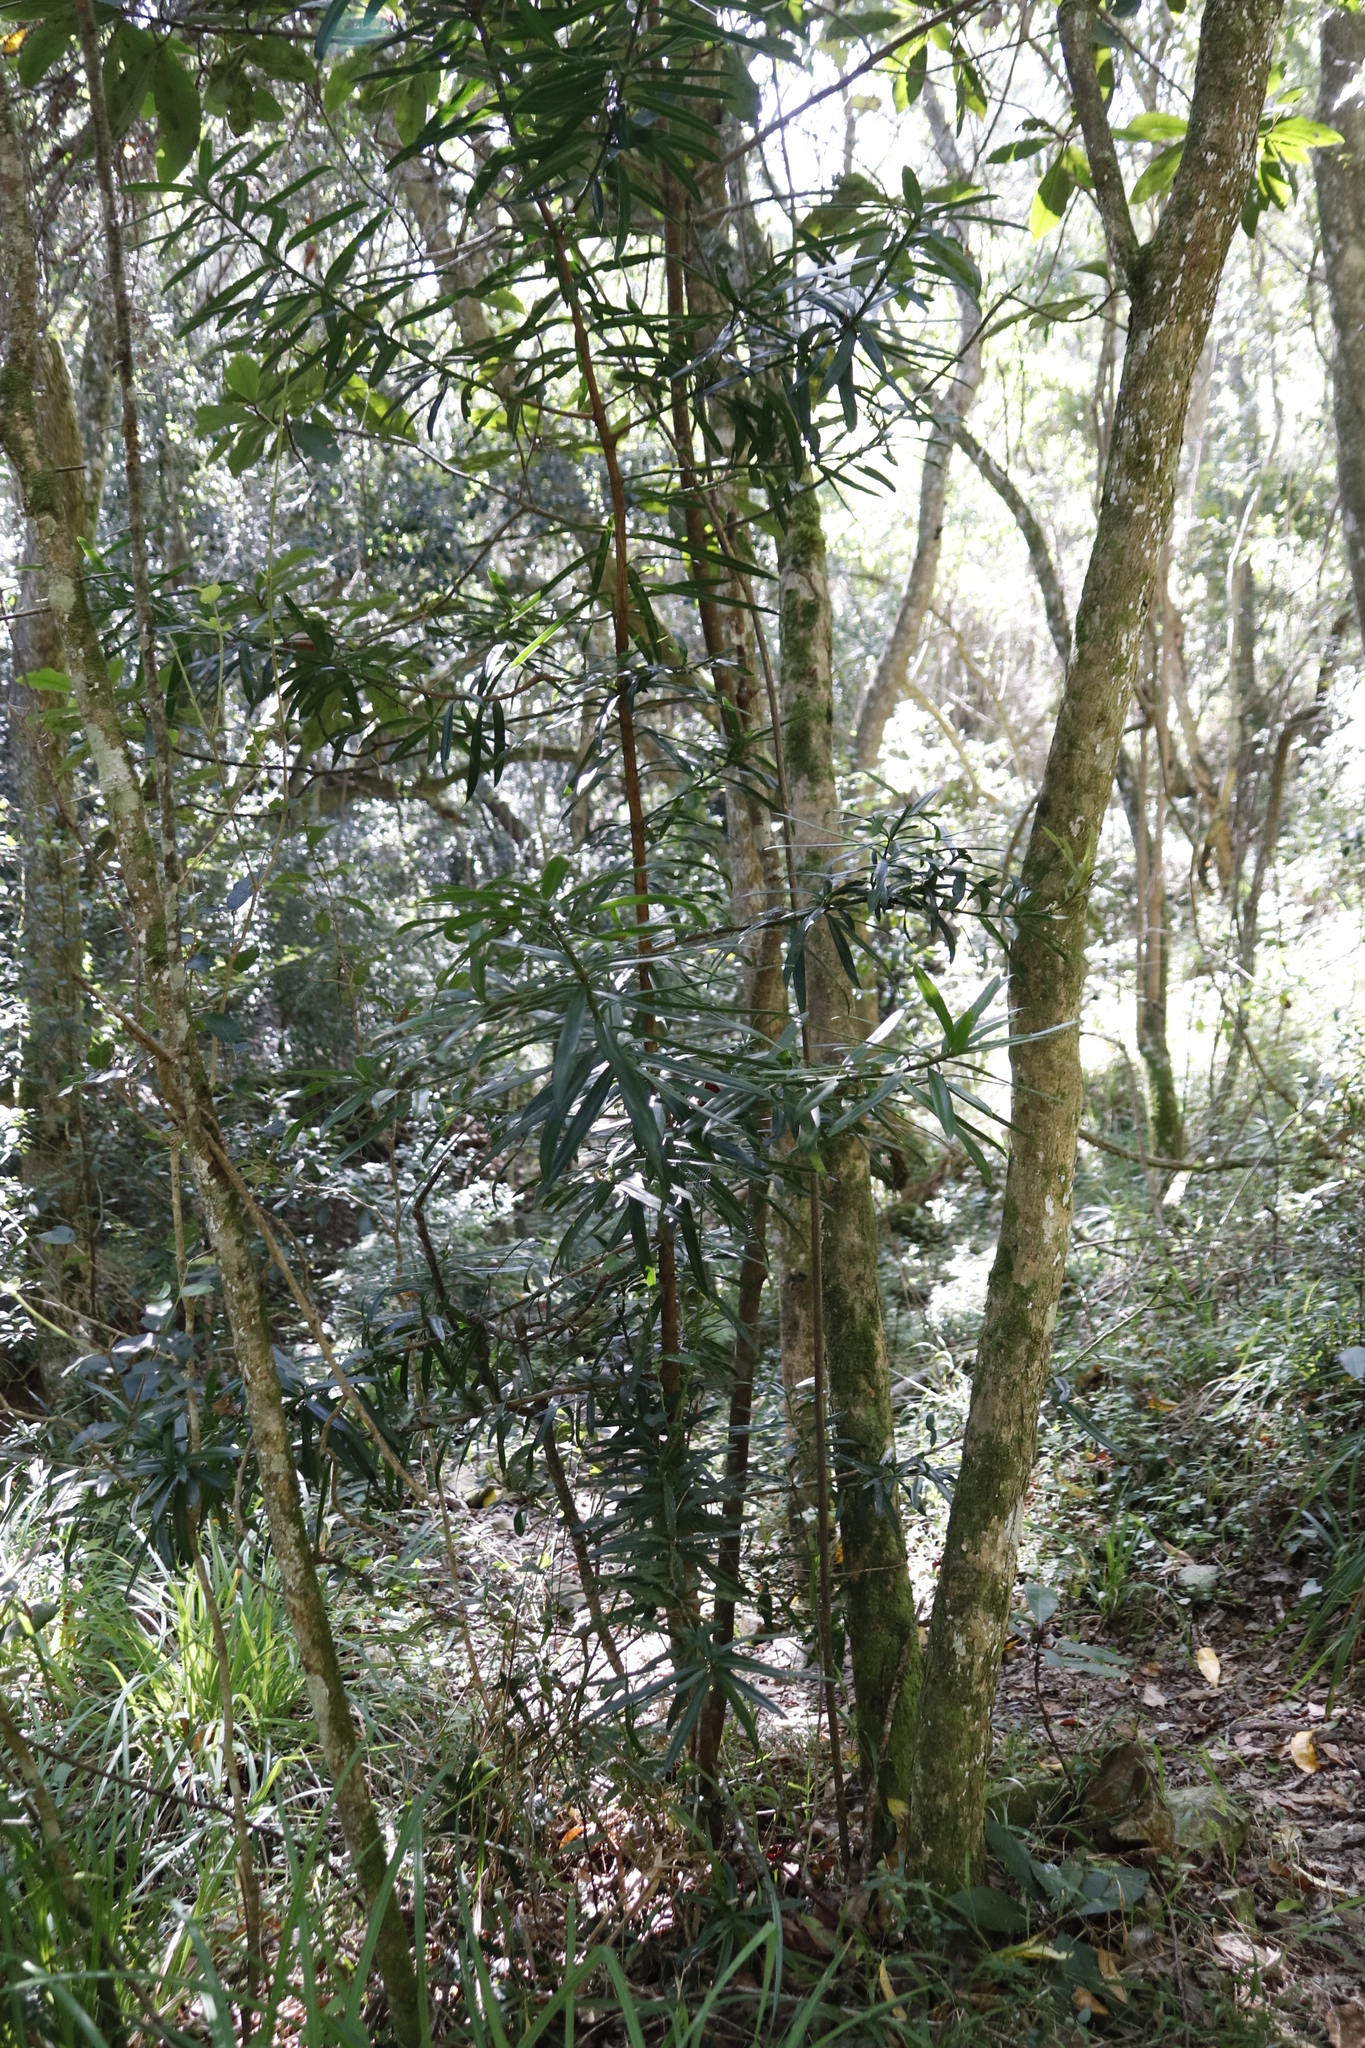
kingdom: Plantae
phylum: Tracheophyta
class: Pinopsida
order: Pinales
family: Podocarpaceae
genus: Podocarpus
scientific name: Podocarpus latifolius
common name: True yellowwood
